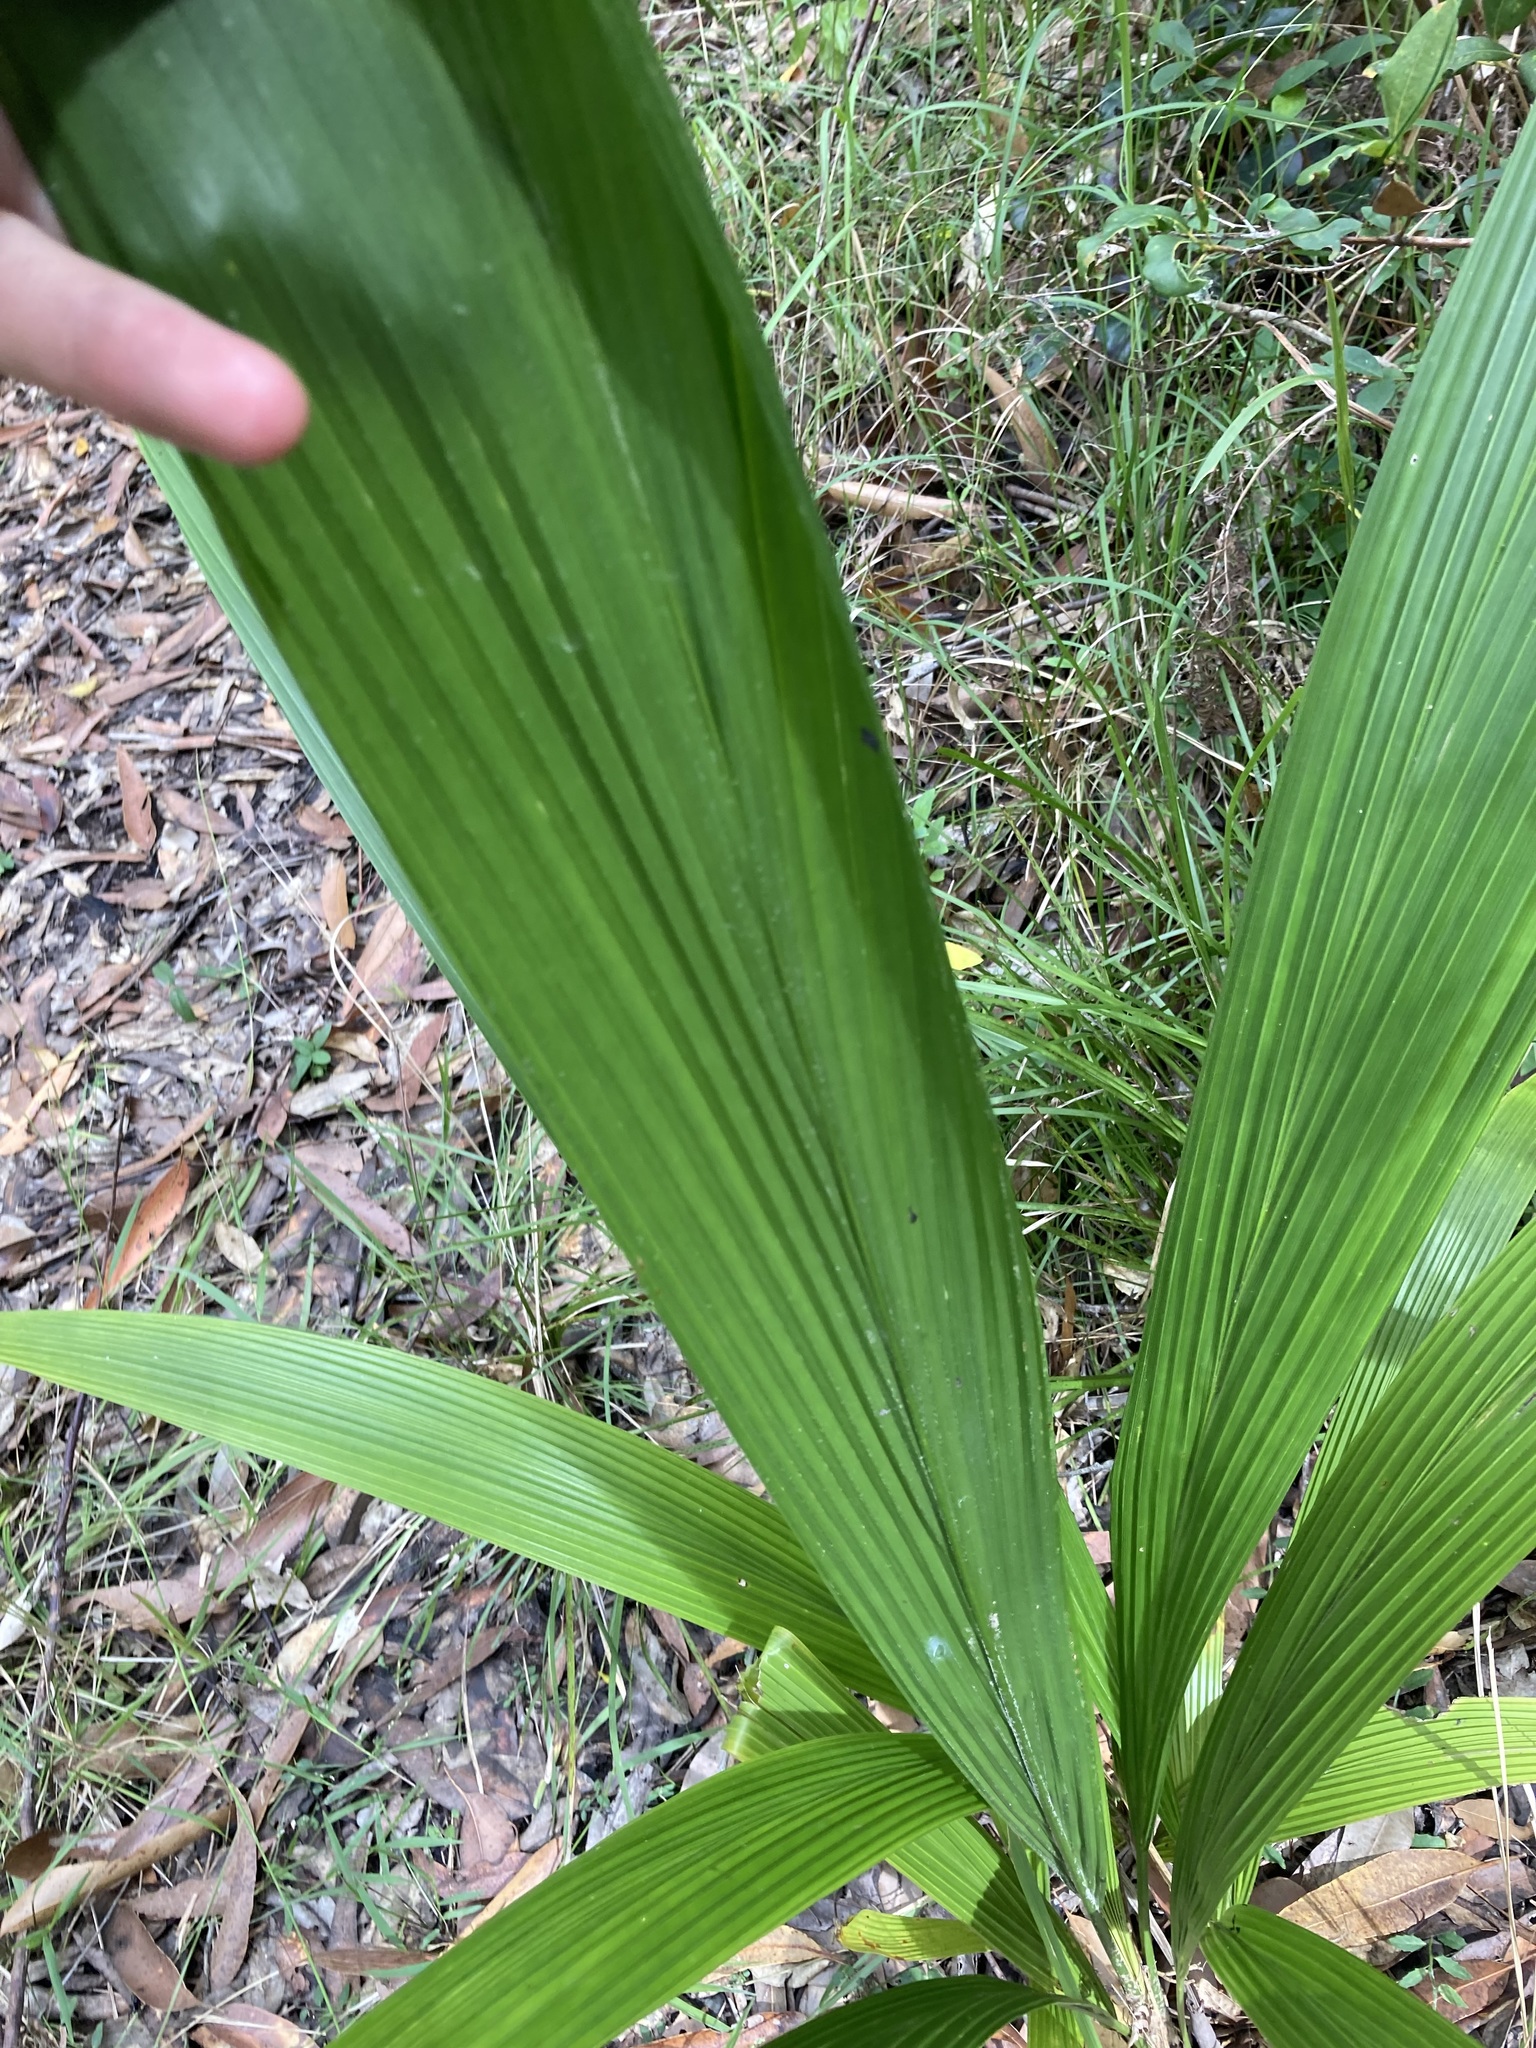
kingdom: Plantae
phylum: Tracheophyta
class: Liliopsida
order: Arecales
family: Arecaceae
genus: Syagrus
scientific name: Syagrus romanzoffiana
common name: Queen palm
